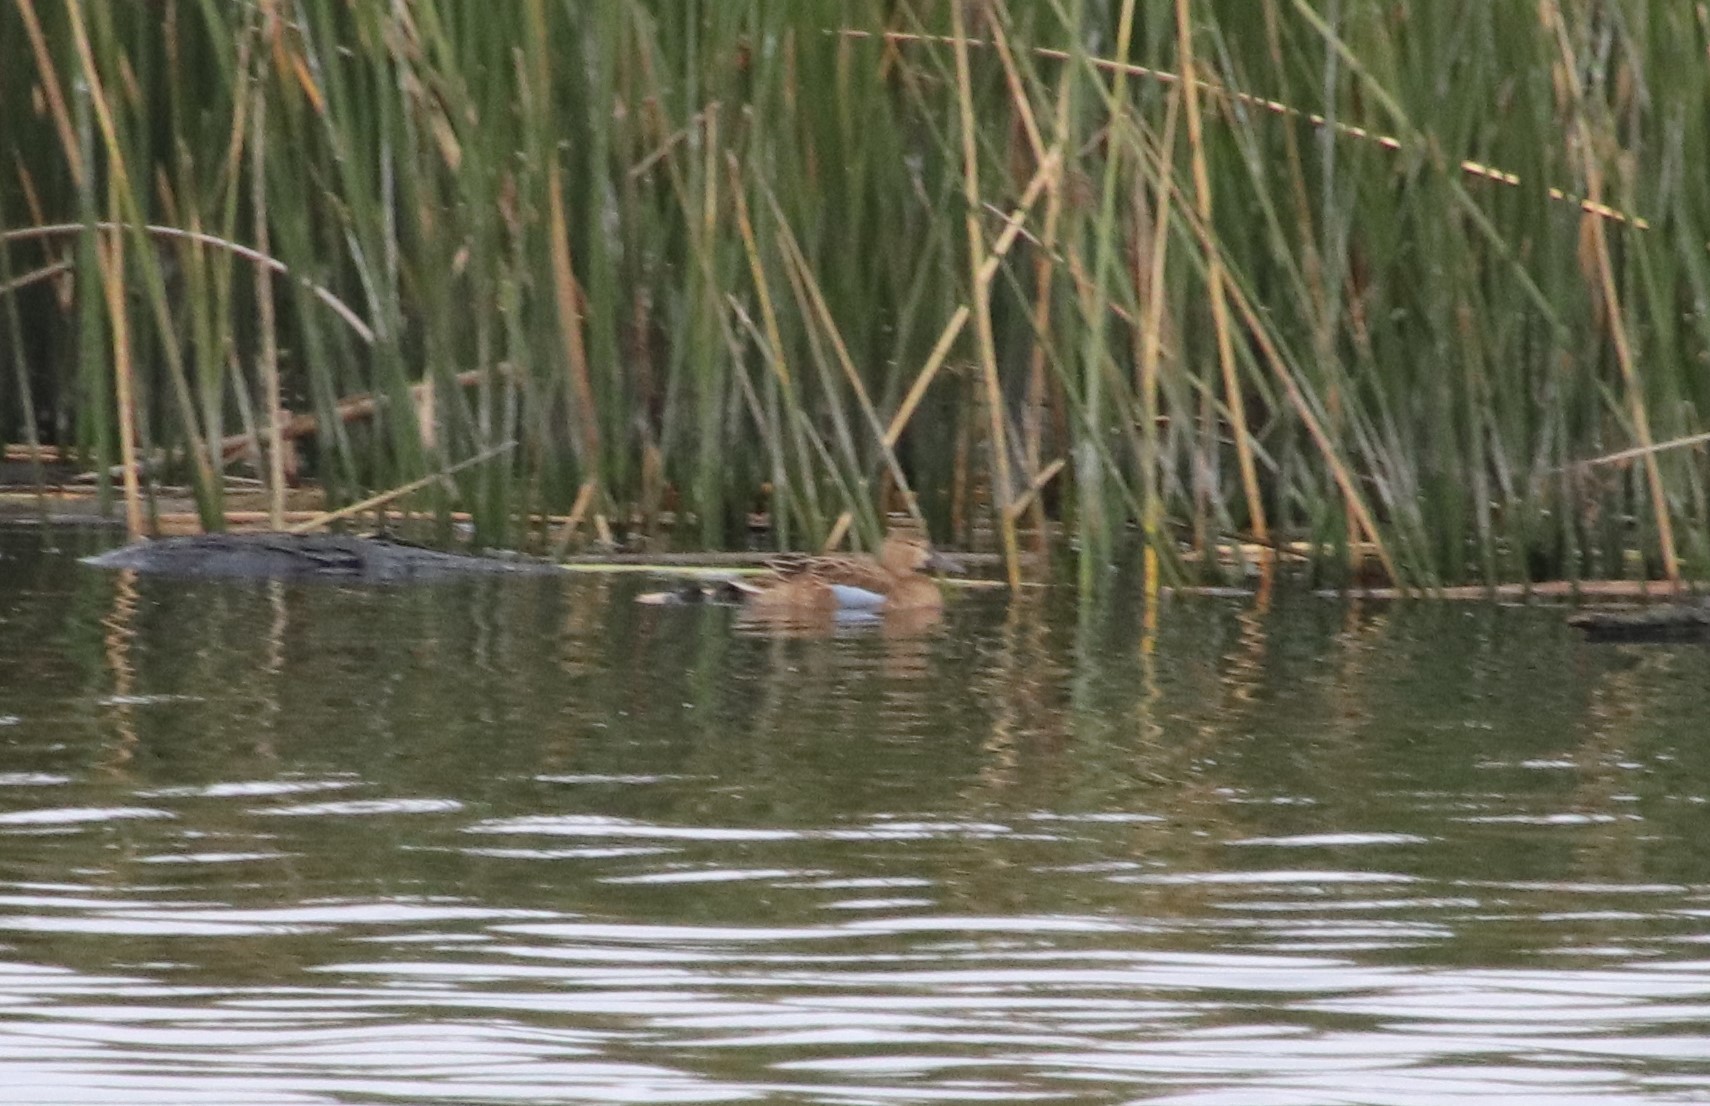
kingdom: Animalia
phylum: Chordata
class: Aves
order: Anseriformes
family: Anatidae
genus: Spatula
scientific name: Spatula cyanoptera
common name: Cinnamon teal
